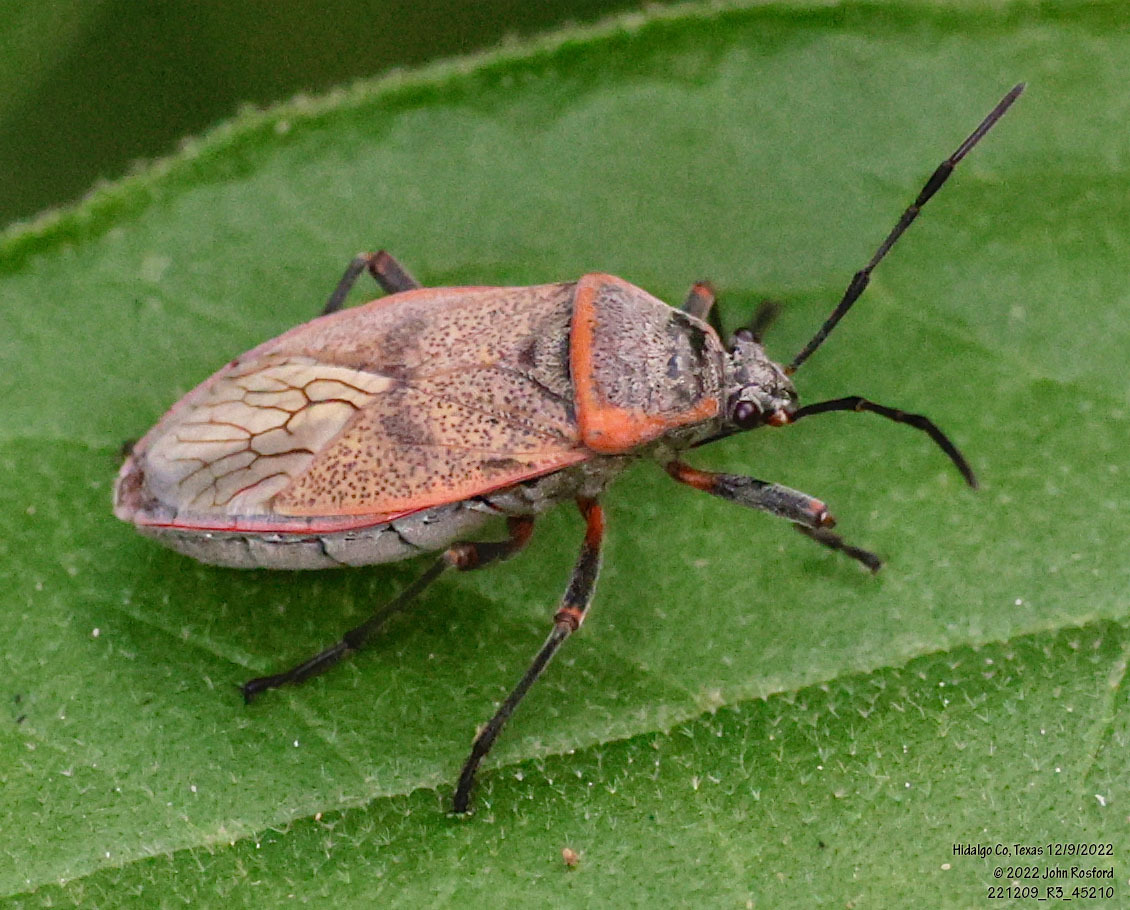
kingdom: Animalia
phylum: Arthropoda
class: Insecta
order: Hemiptera
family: Largidae
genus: Largus
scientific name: Largus maculatus
